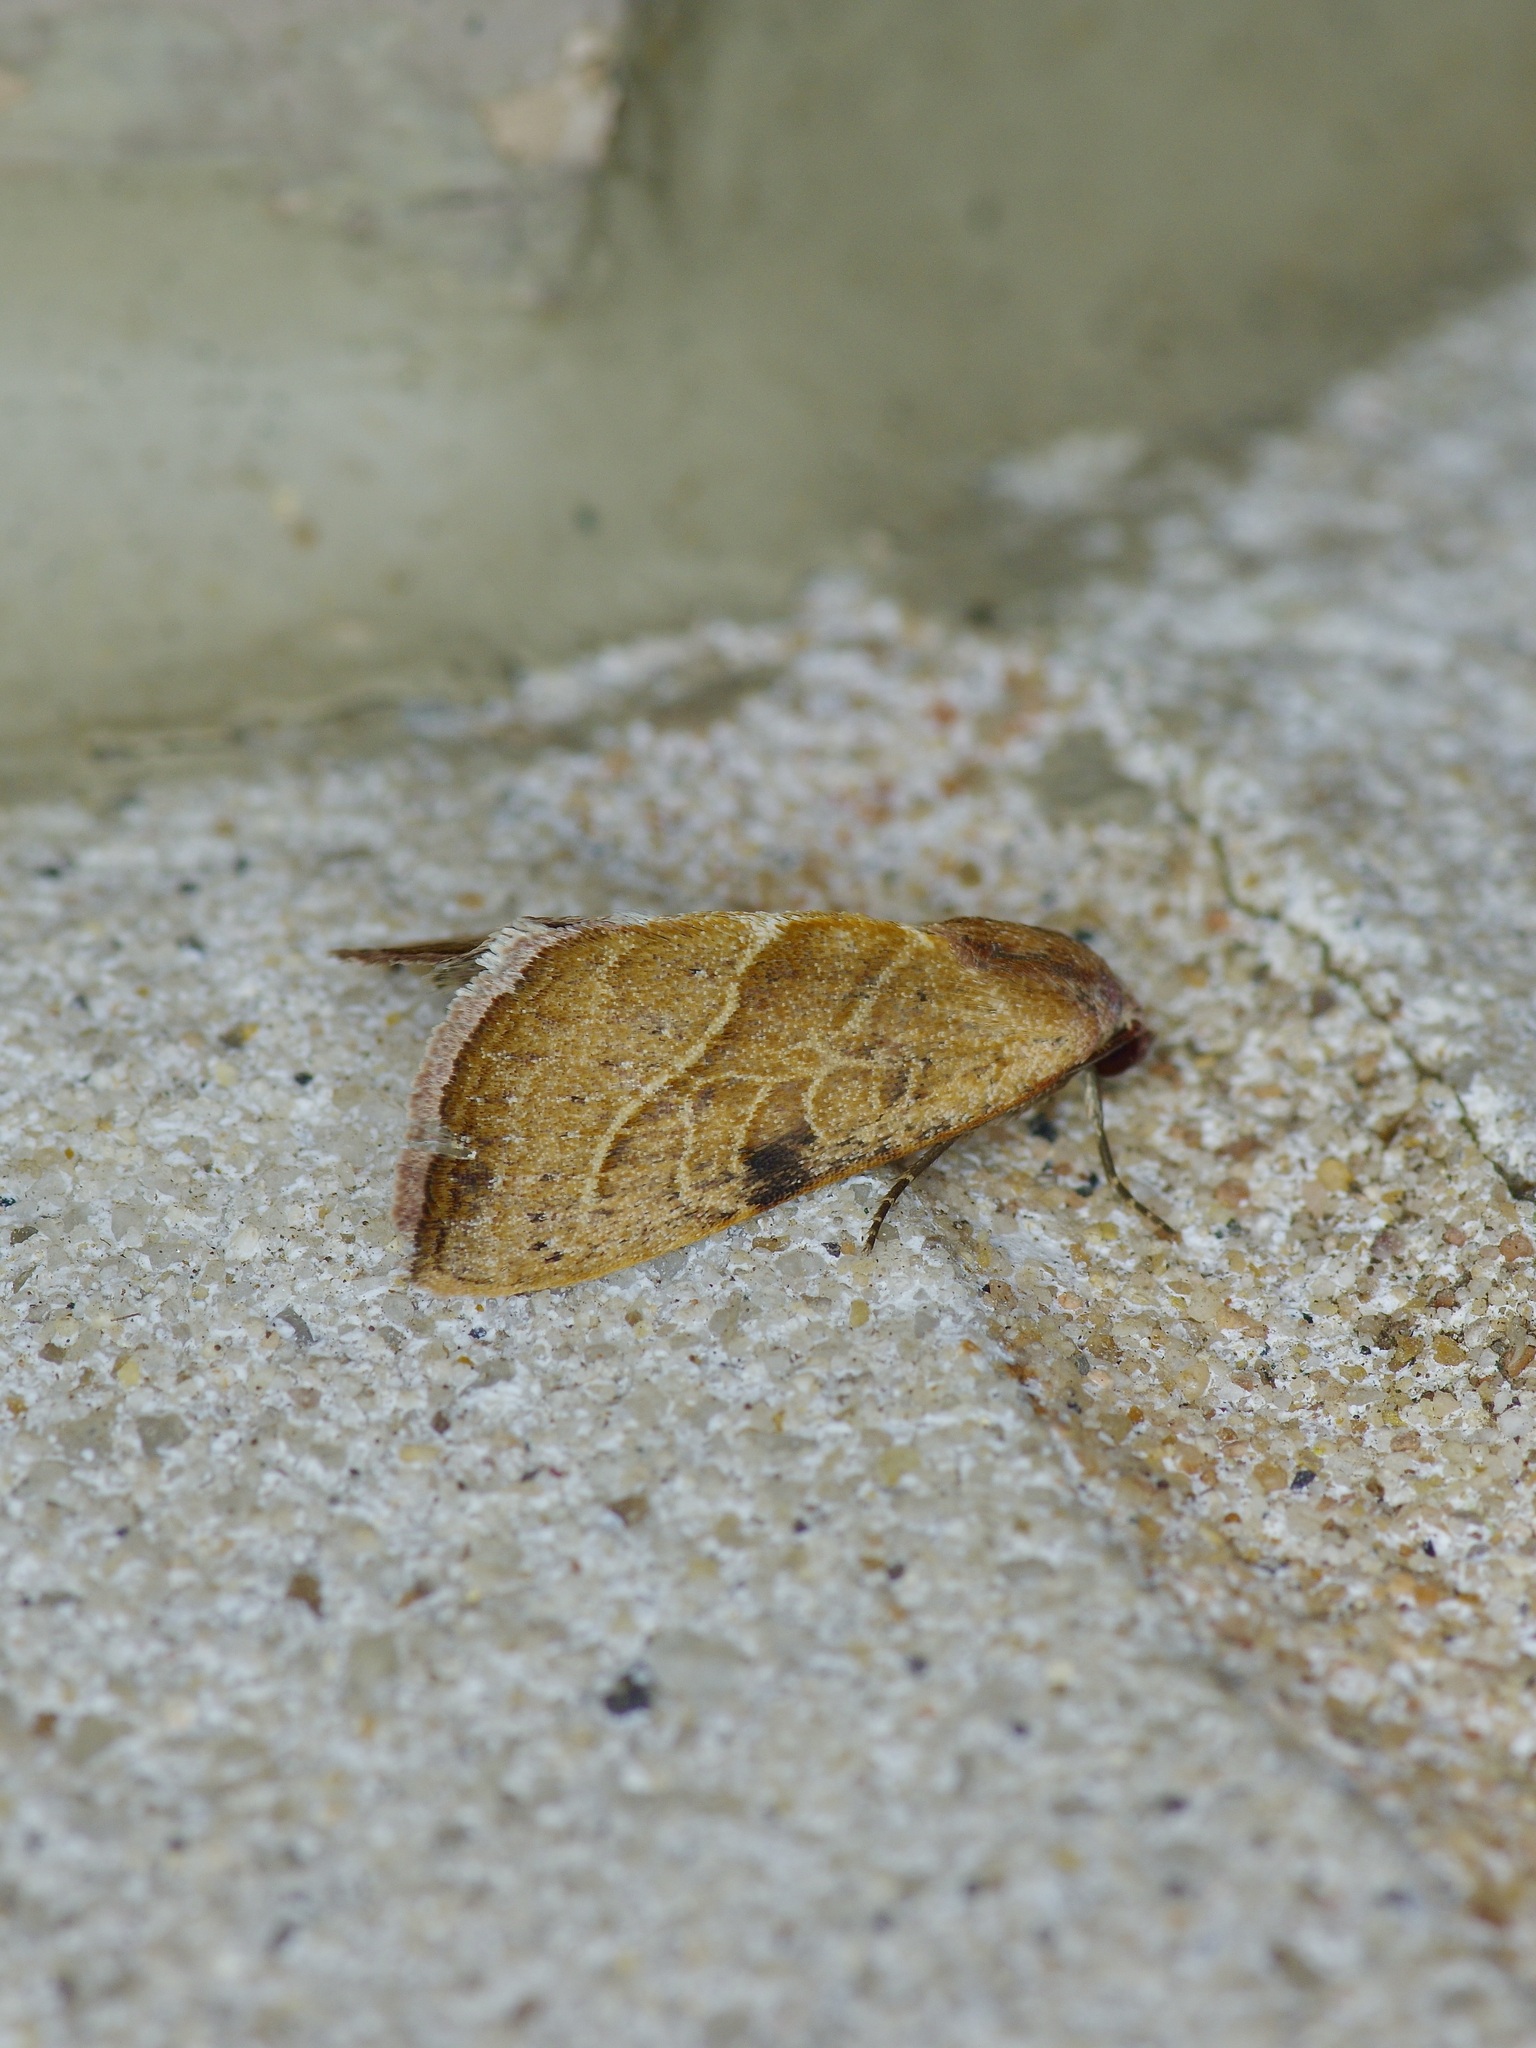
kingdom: Animalia
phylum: Arthropoda
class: Insecta
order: Lepidoptera
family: Noctuidae
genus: Galgula
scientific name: Galgula partita
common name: Wedgeling
